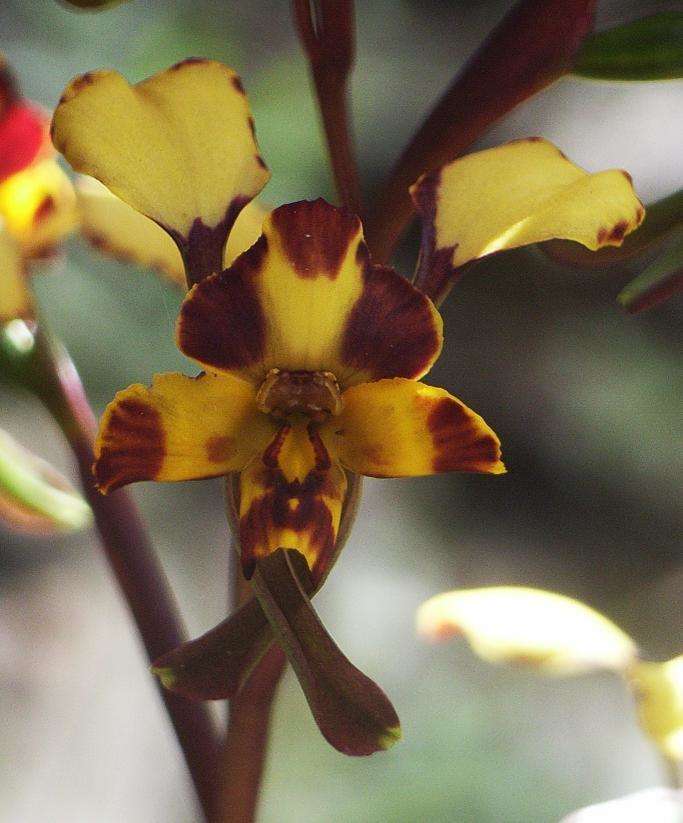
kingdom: Plantae
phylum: Tracheophyta
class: Liliopsida
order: Asparagales
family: Orchidaceae
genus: Diuris
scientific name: Diuris pardina
